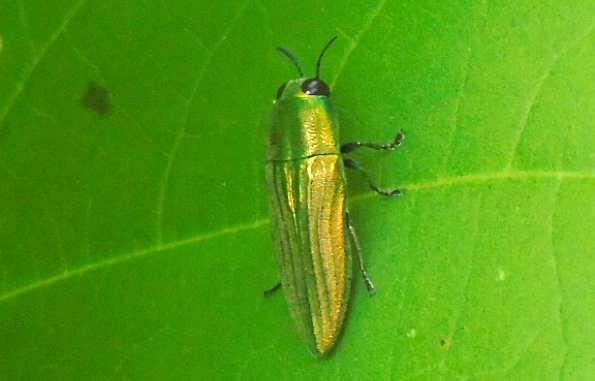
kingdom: Animalia
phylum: Arthropoda
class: Insecta
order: Coleoptera
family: Buprestidae
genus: Agaeocera
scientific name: Agaeocera scintillans
